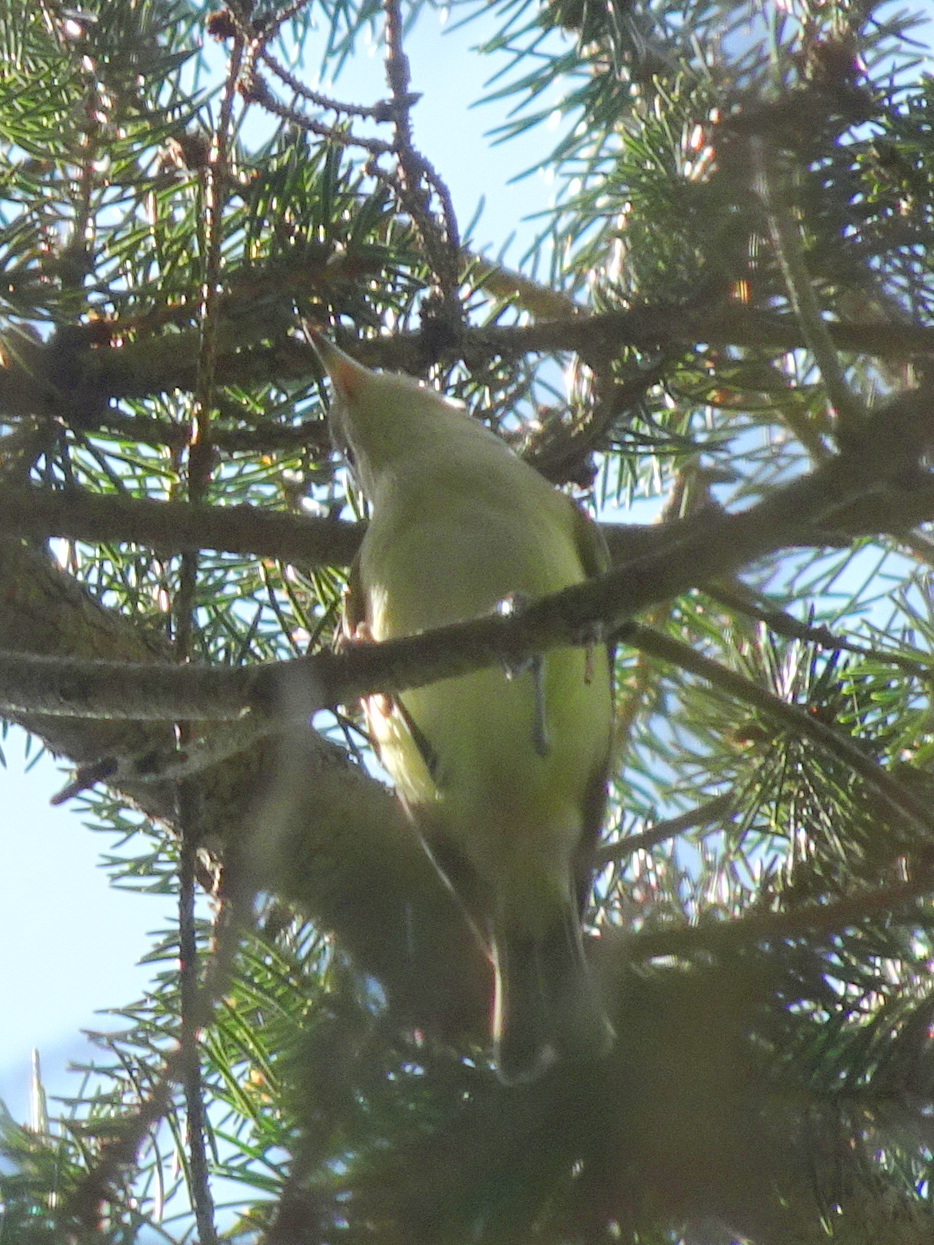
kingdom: Animalia
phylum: Chordata
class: Aves
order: Passeriformes
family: Vireonidae
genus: Vireo
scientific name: Vireo gilvus
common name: Warbling vireo
